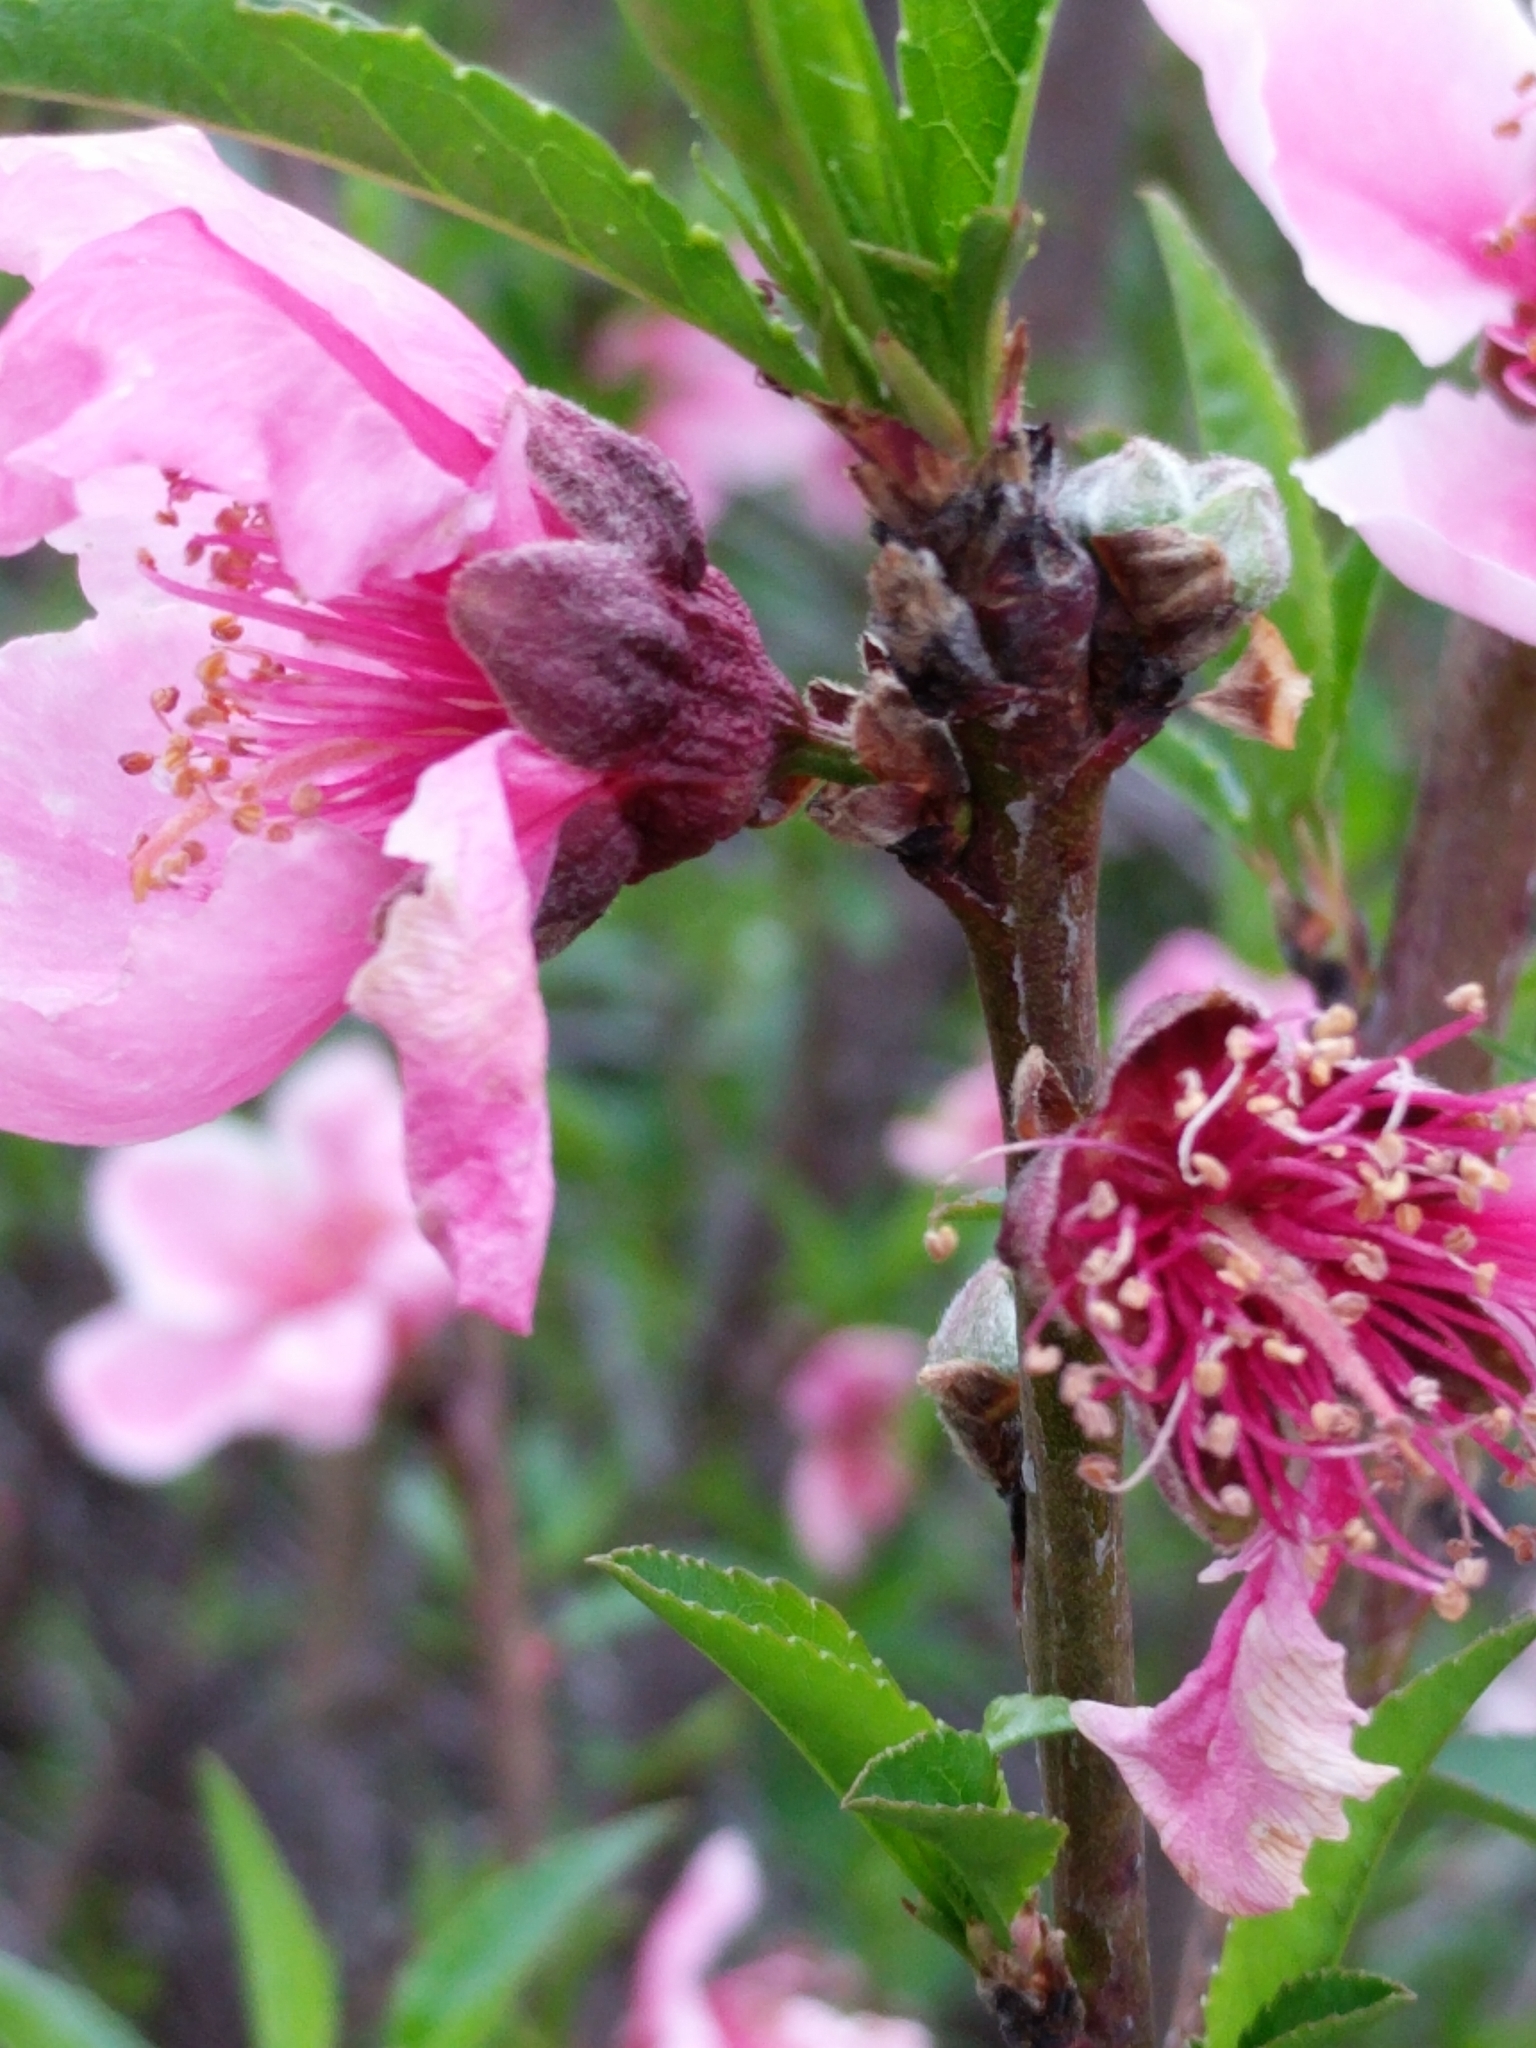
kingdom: Plantae
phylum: Tracheophyta
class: Magnoliopsida
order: Rosales
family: Rosaceae
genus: Prunus
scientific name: Prunus persica
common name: Peach
